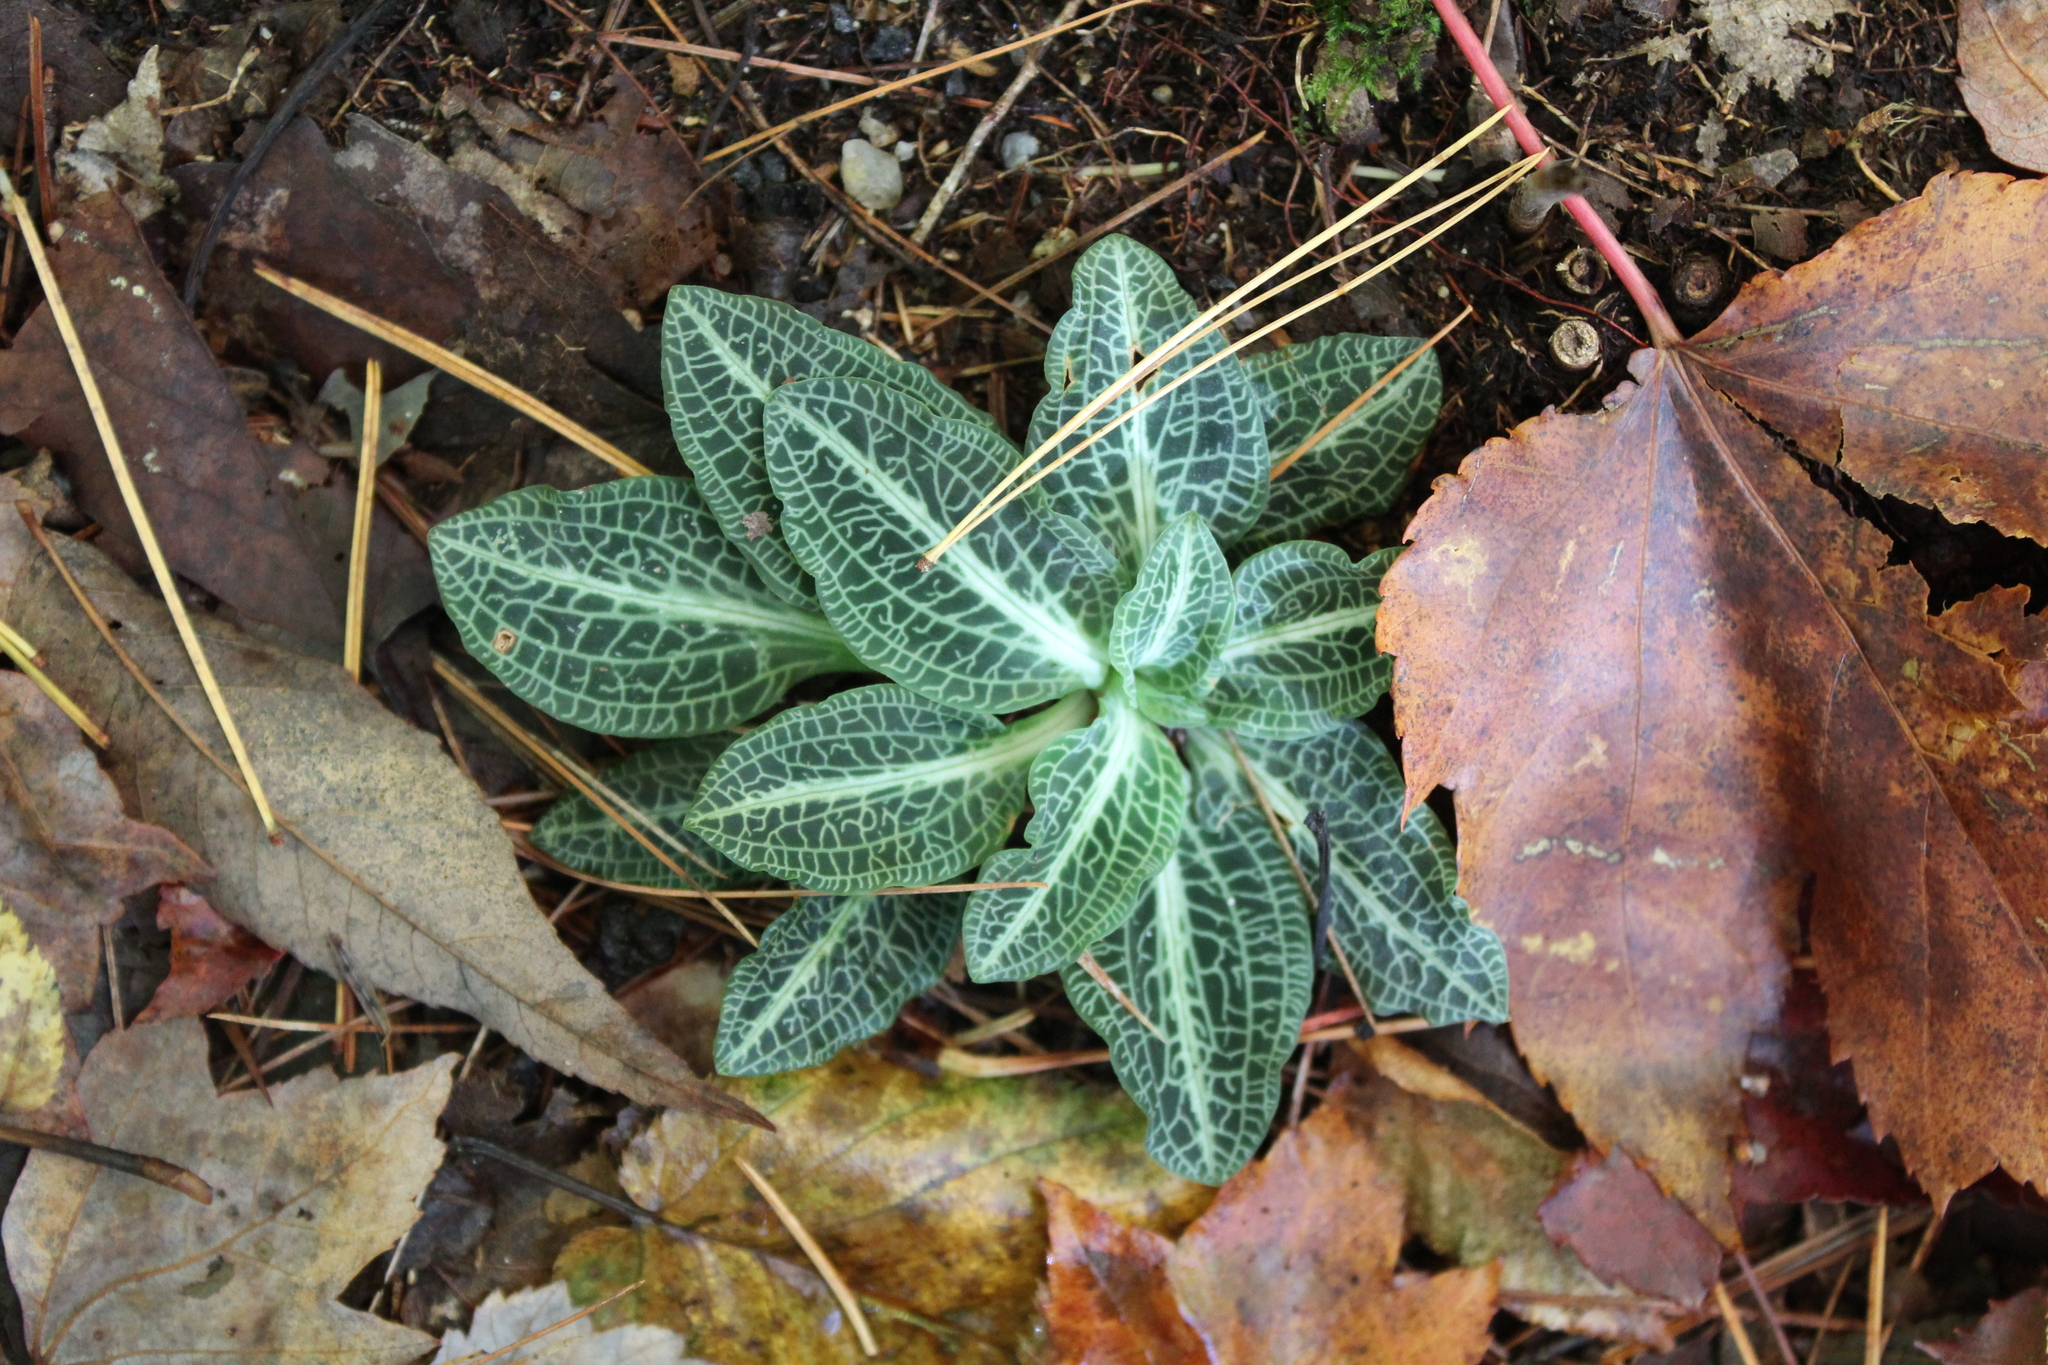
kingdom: Plantae
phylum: Tracheophyta
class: Liliopsida
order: Asparagales
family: Orchidaceae
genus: Goodyera
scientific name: Goodyera pubescens
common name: Downy rattlesnake-plantain
